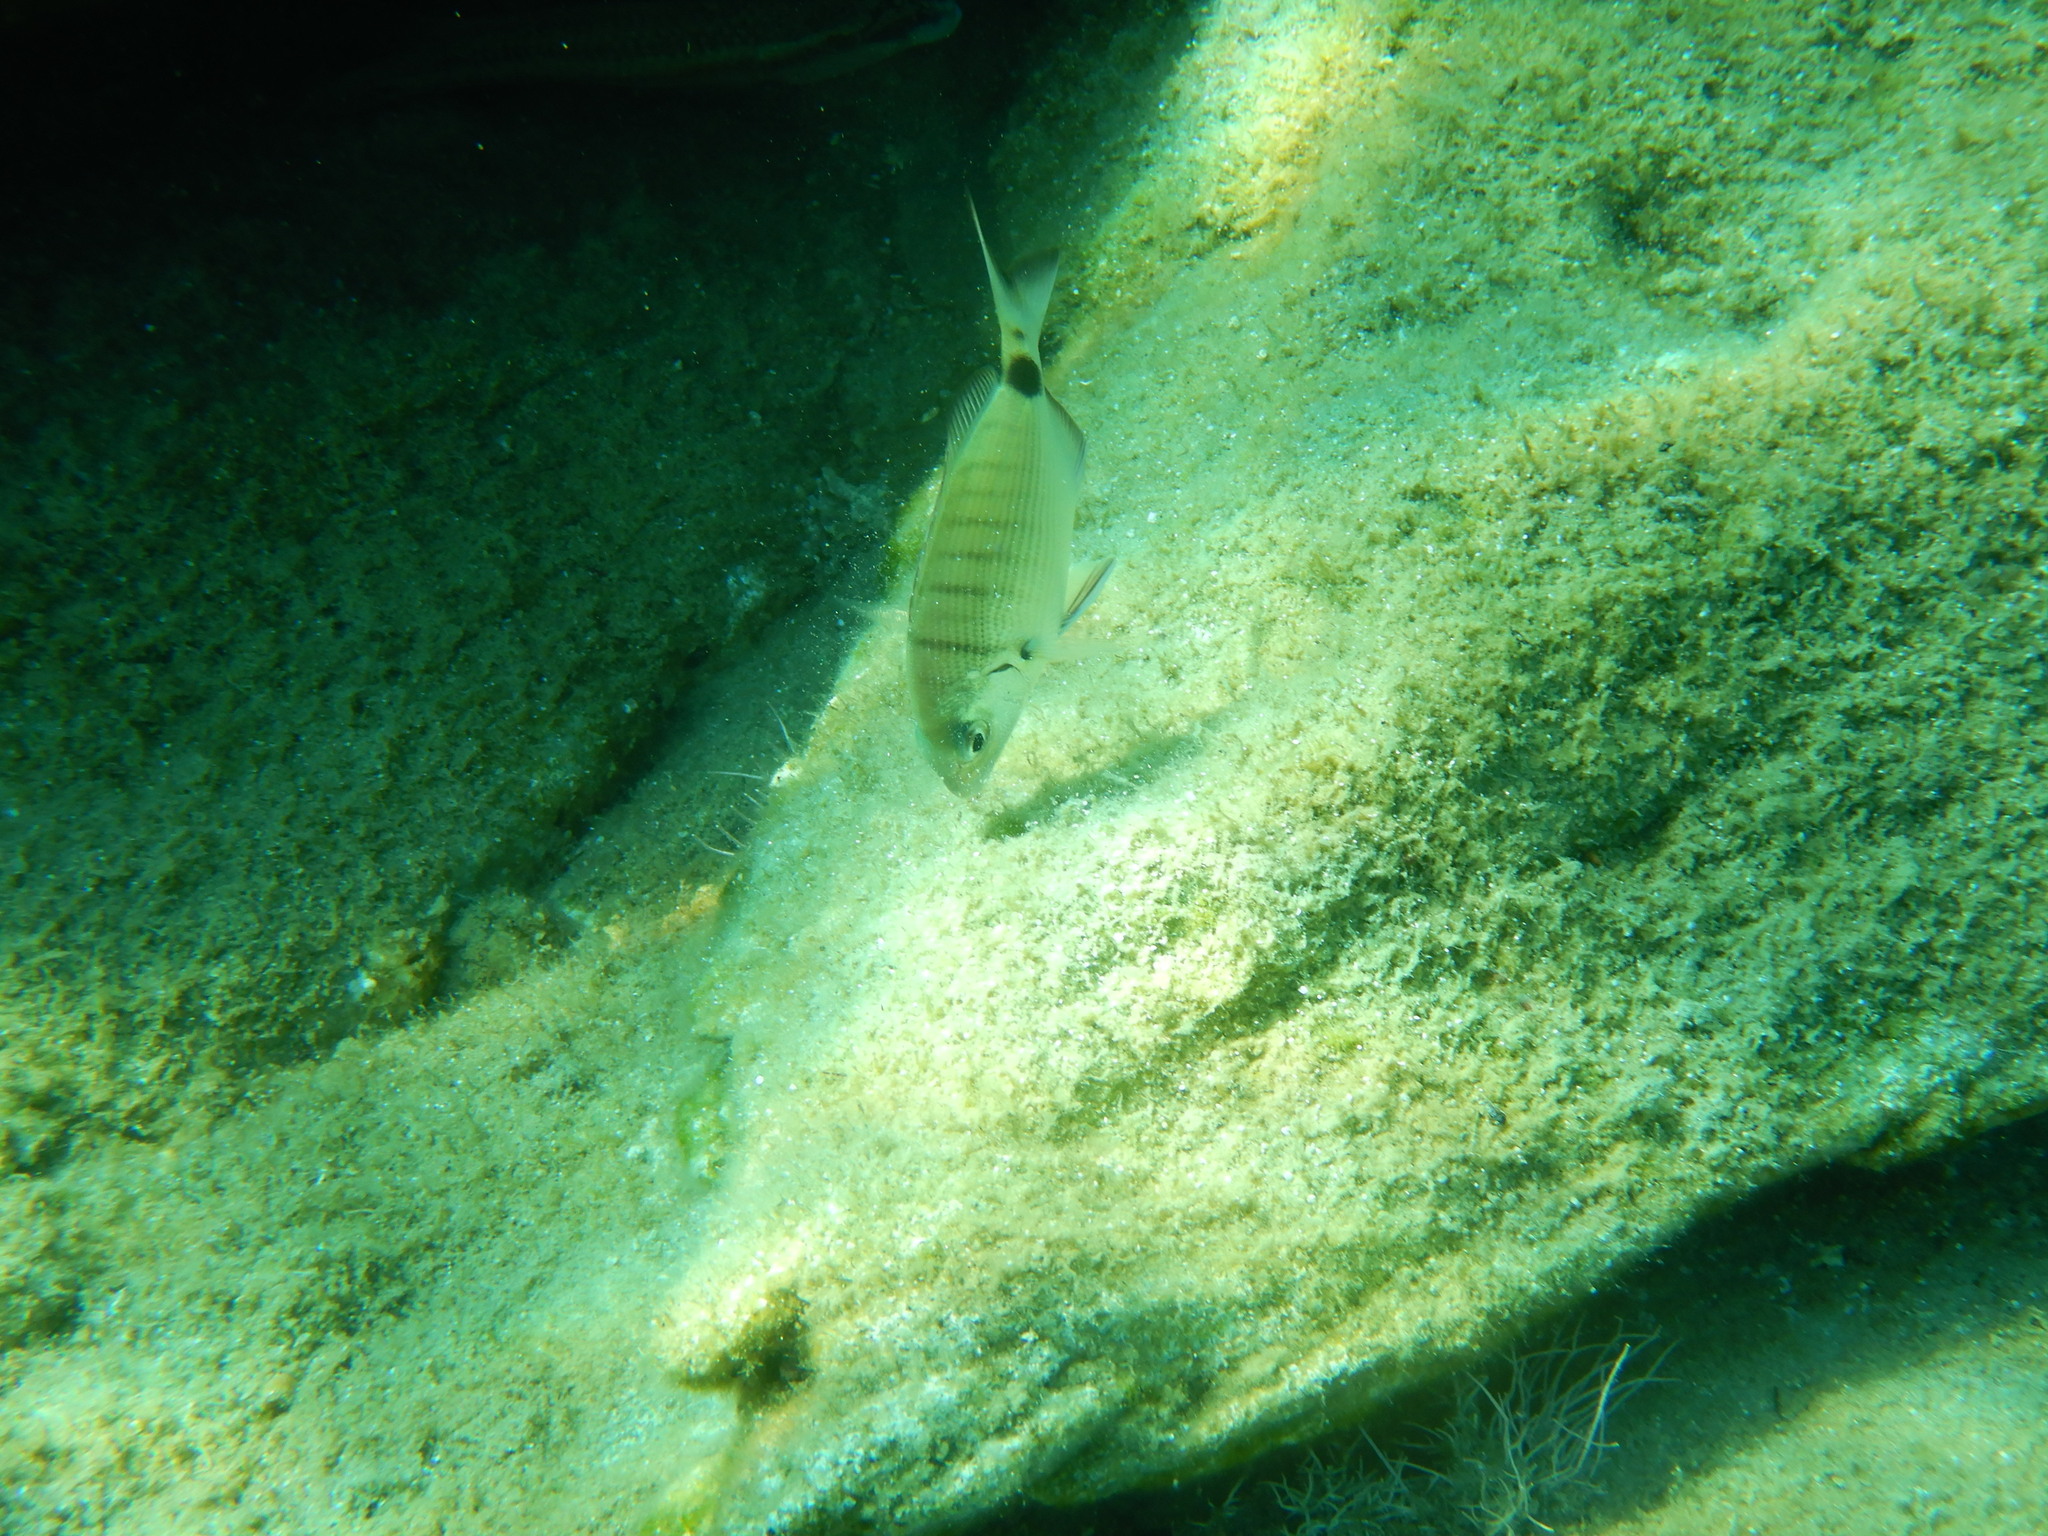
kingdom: Animalia
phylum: Chordata
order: Perciformes
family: Sparidae
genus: Diplodus
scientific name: Diplodus sargus
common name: White seabream
